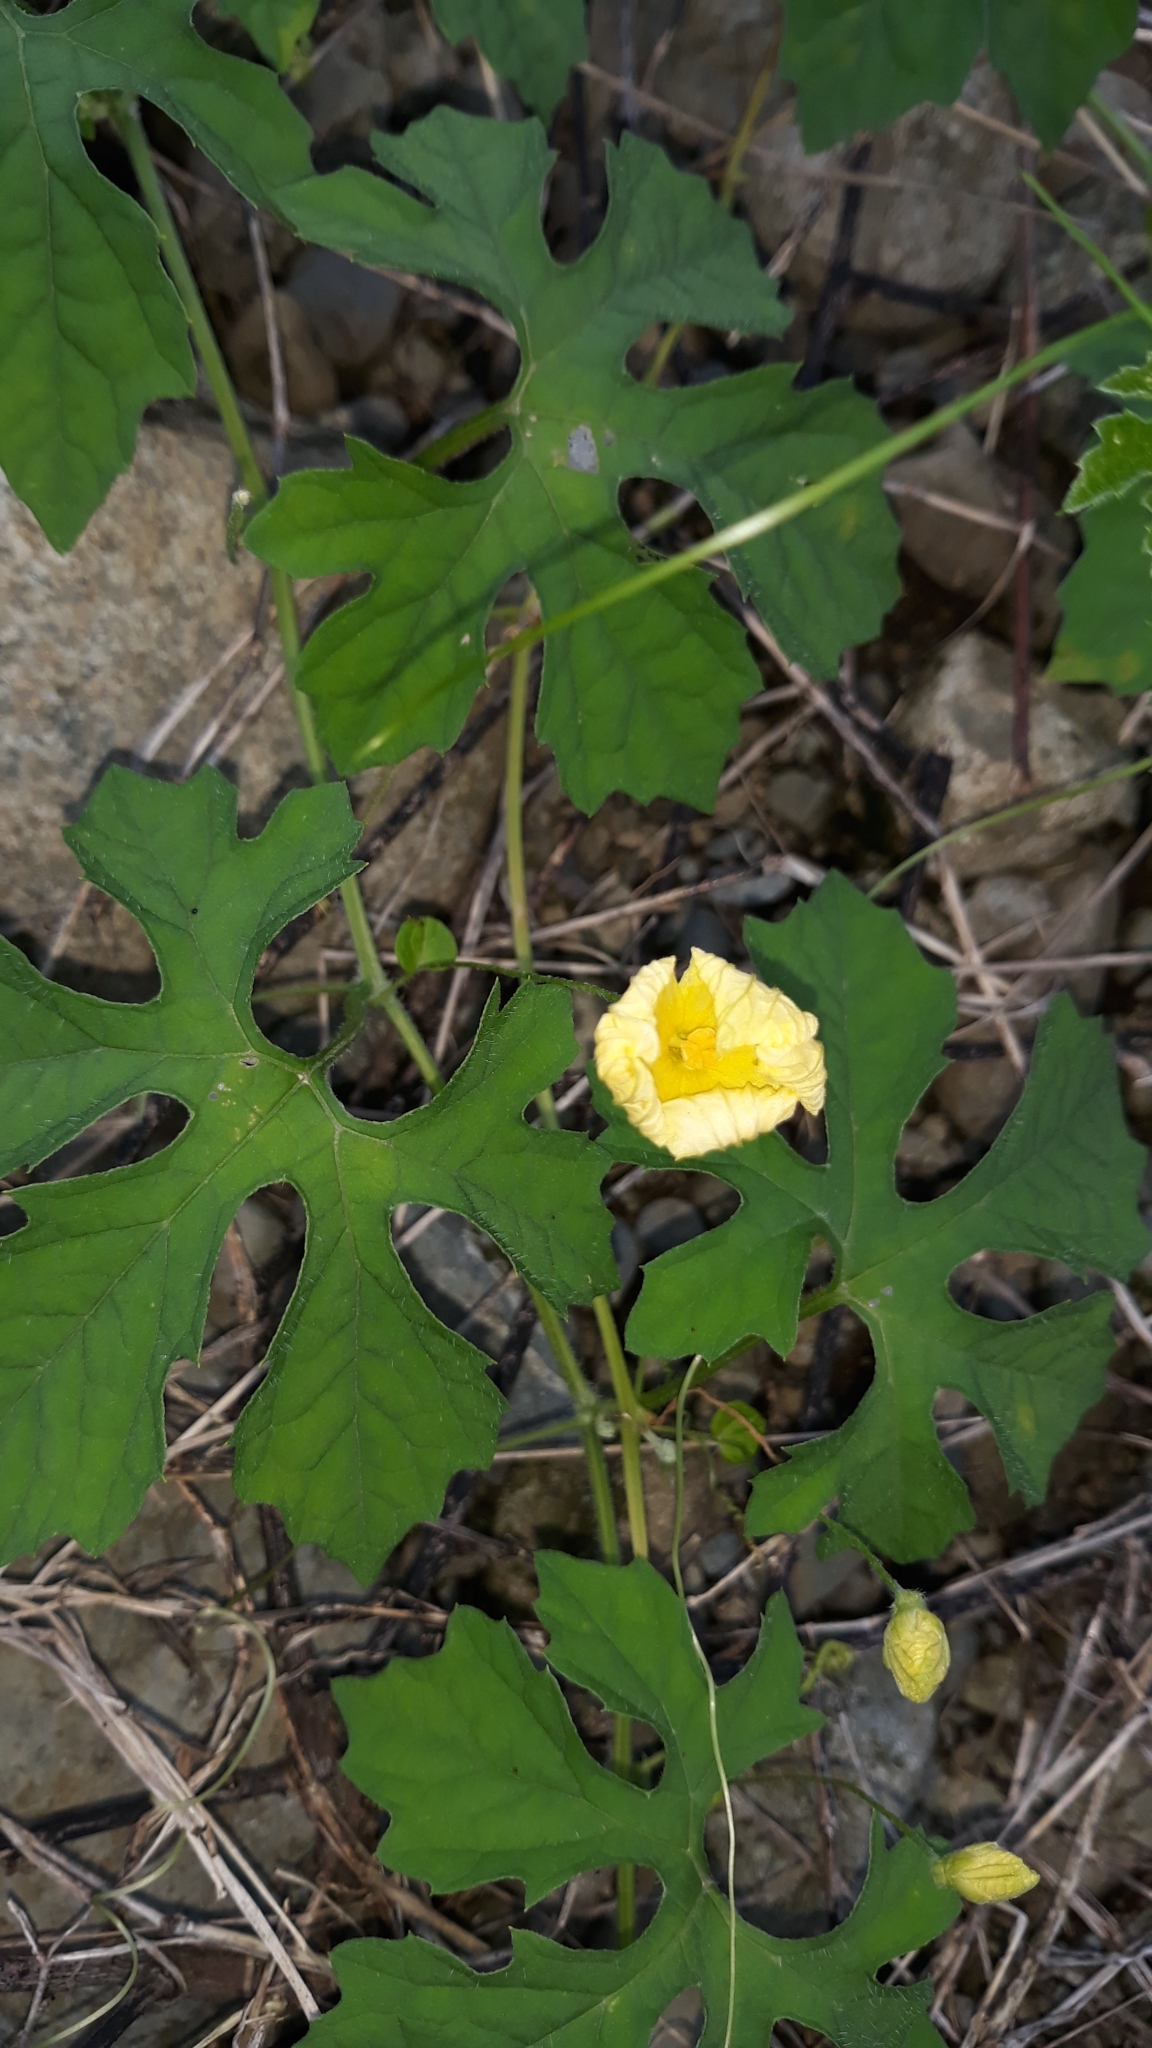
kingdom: Plantae
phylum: Tracheophyta
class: Magnoliopsida
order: Cucurbitales
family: Cucurbitaceae
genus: Momordica
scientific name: Momordica charantia
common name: Balsampear
